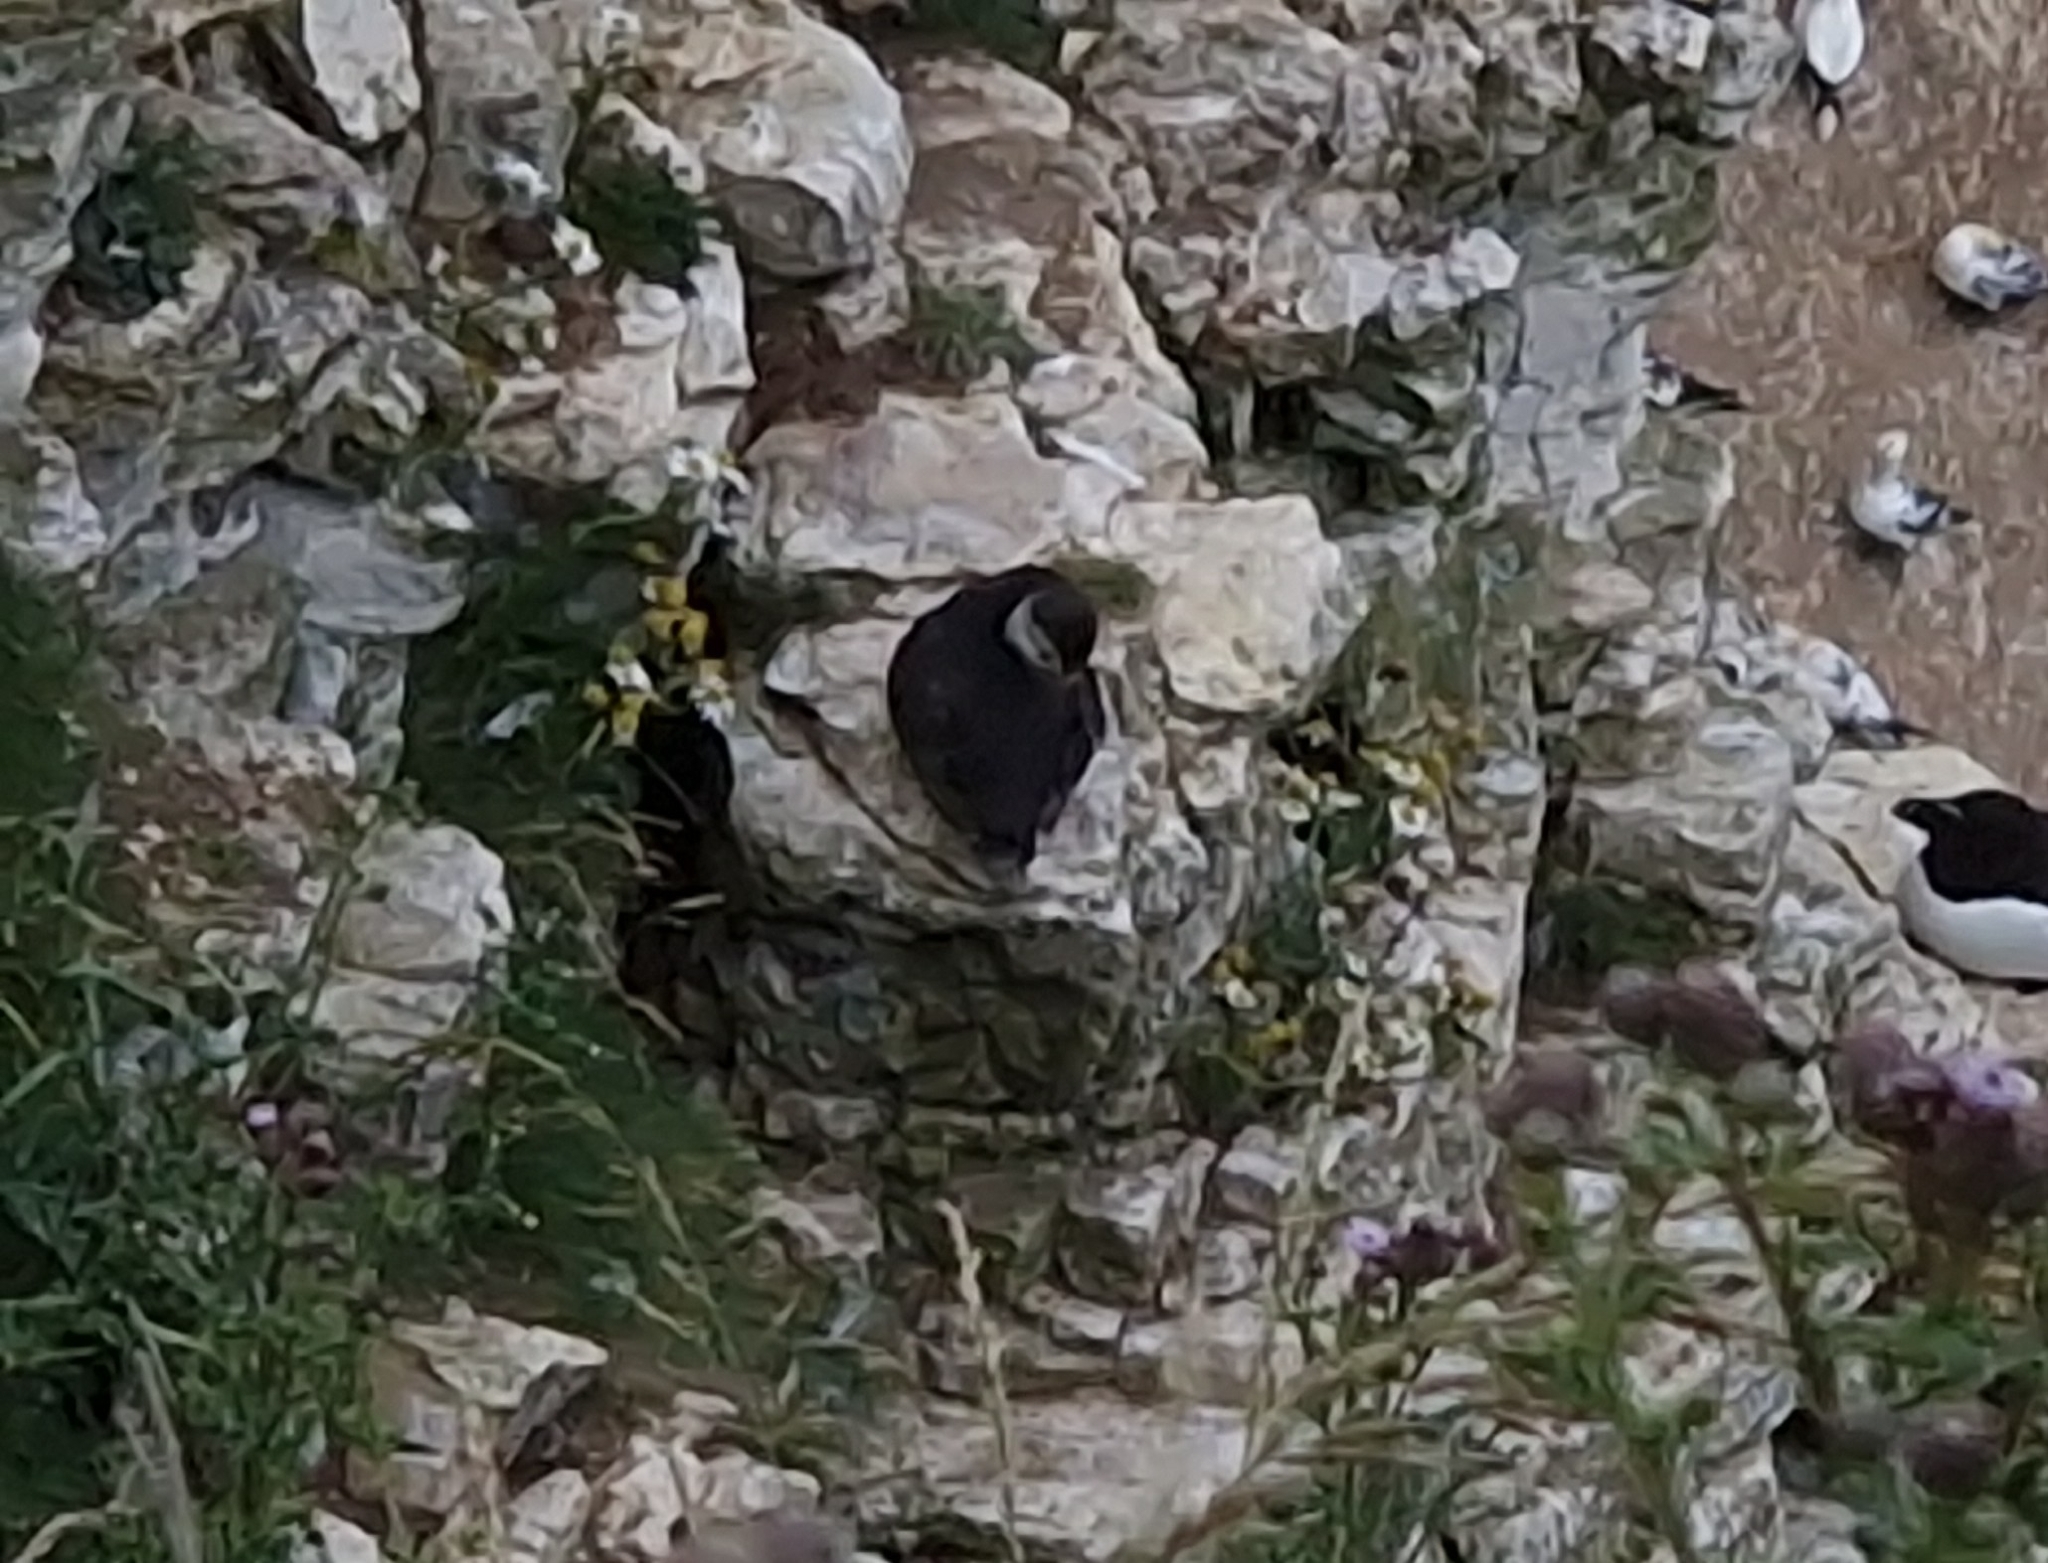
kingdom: Animalia
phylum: Chordata
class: Aves
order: Charadriiformes
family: Alcidae
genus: Fratercula
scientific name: Fratercula arctica
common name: Atlantic puffin
